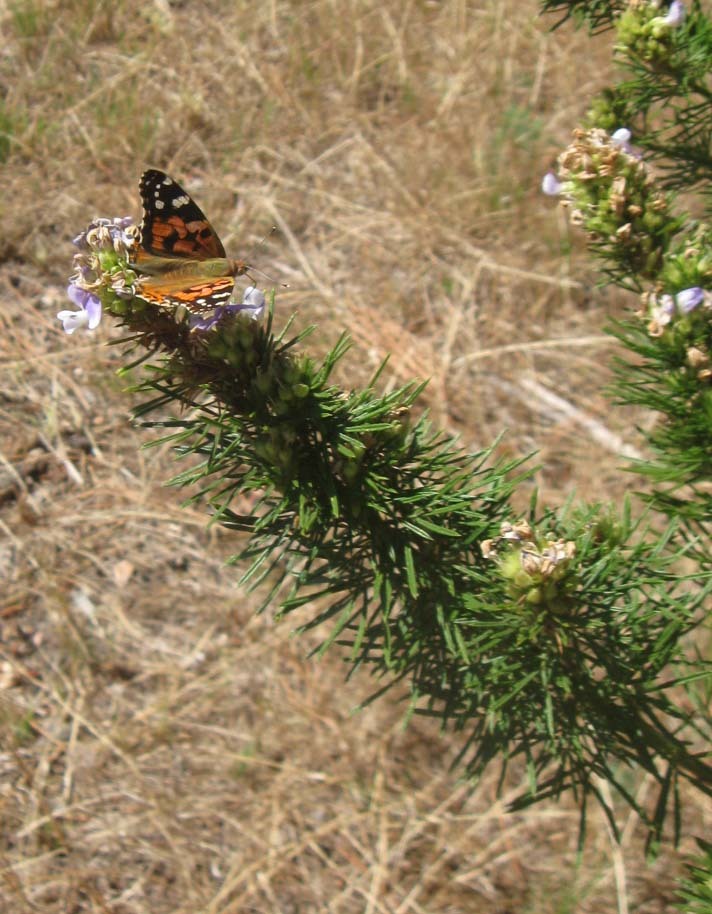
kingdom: Animalia
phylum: Arthropoda
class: Insecta
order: Lepidoptera
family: Nymphalidae
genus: Vanessa
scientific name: Vanessa cardui
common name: Painted lady
